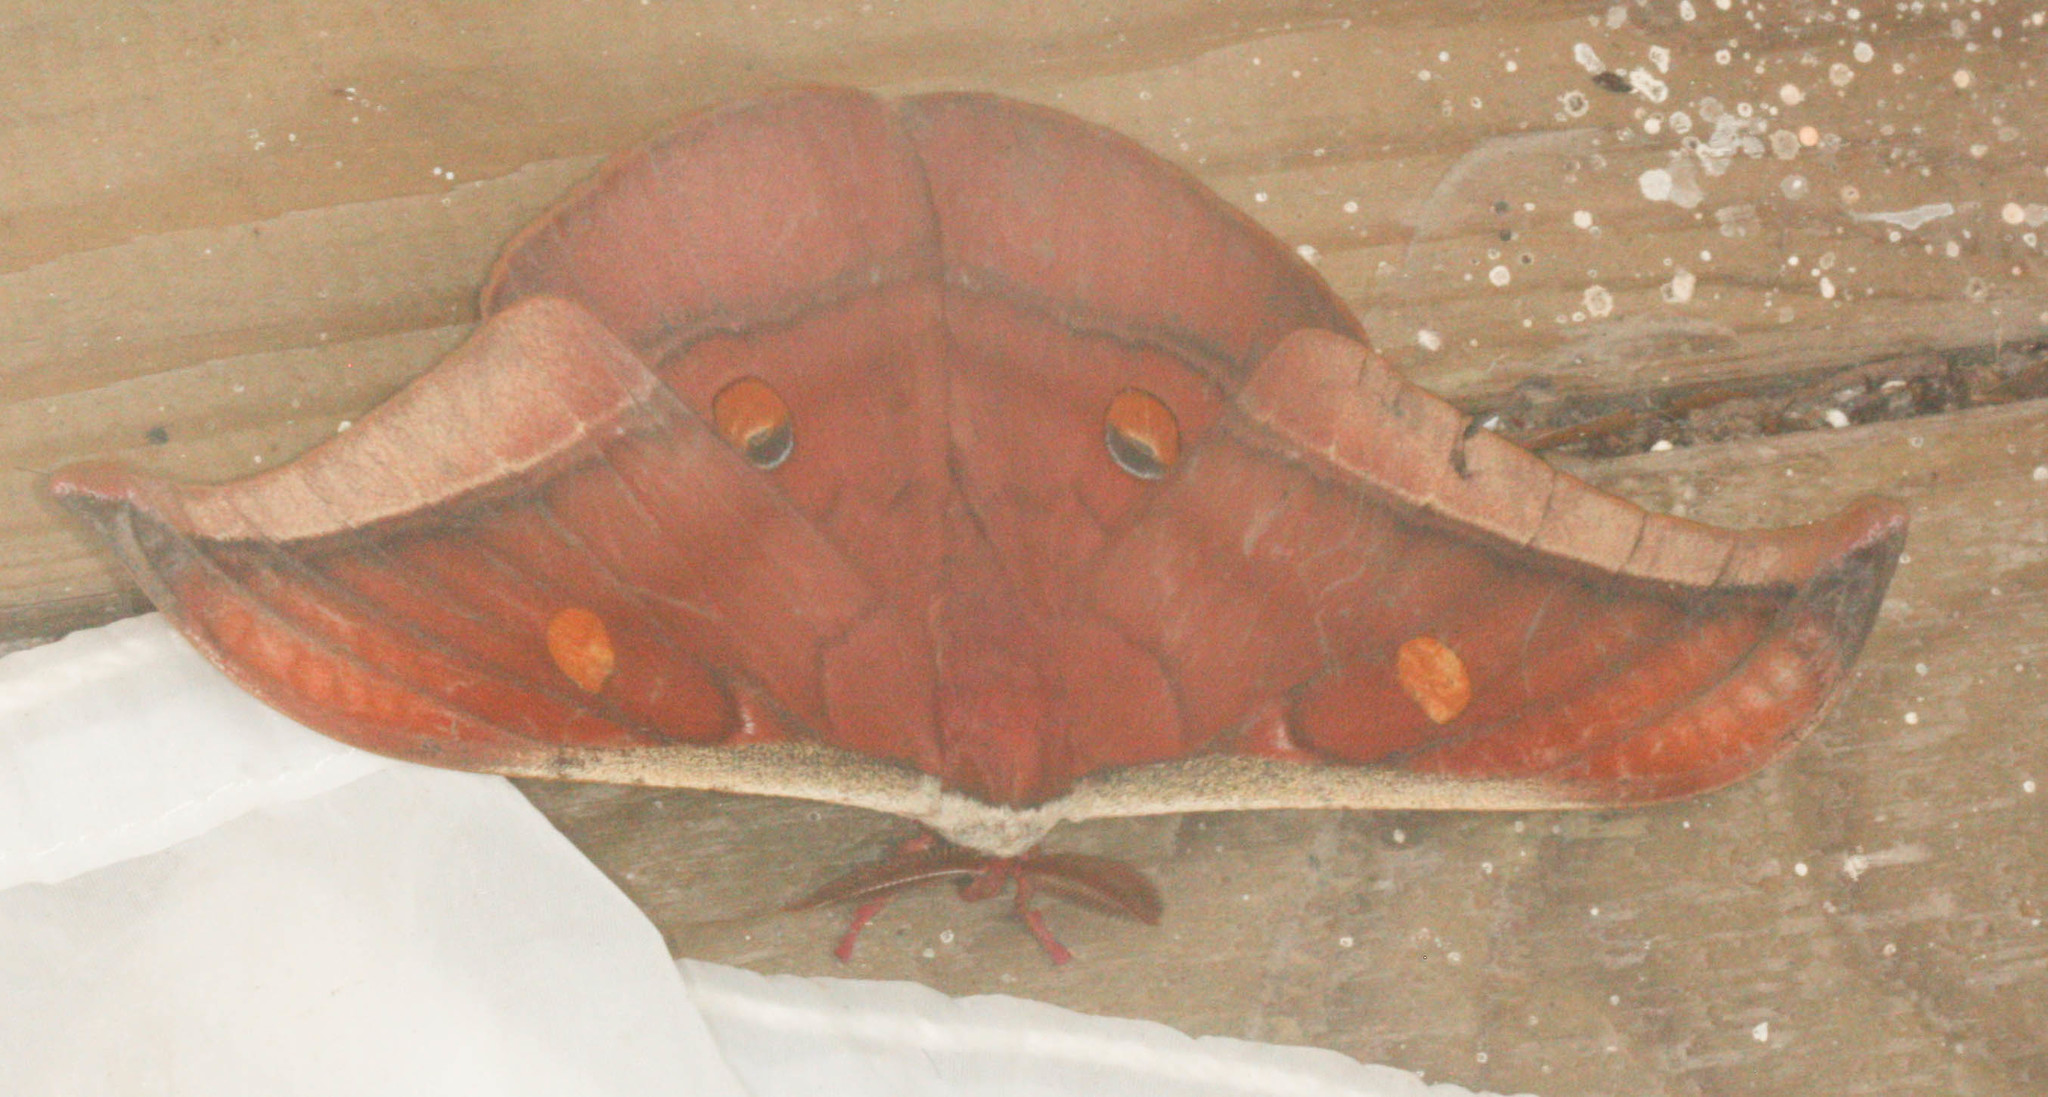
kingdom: Animalia
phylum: Arthropoda
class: Insecta
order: Lepidoptera
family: Saturniidae
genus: Antheraea
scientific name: Antheraea assamensis
